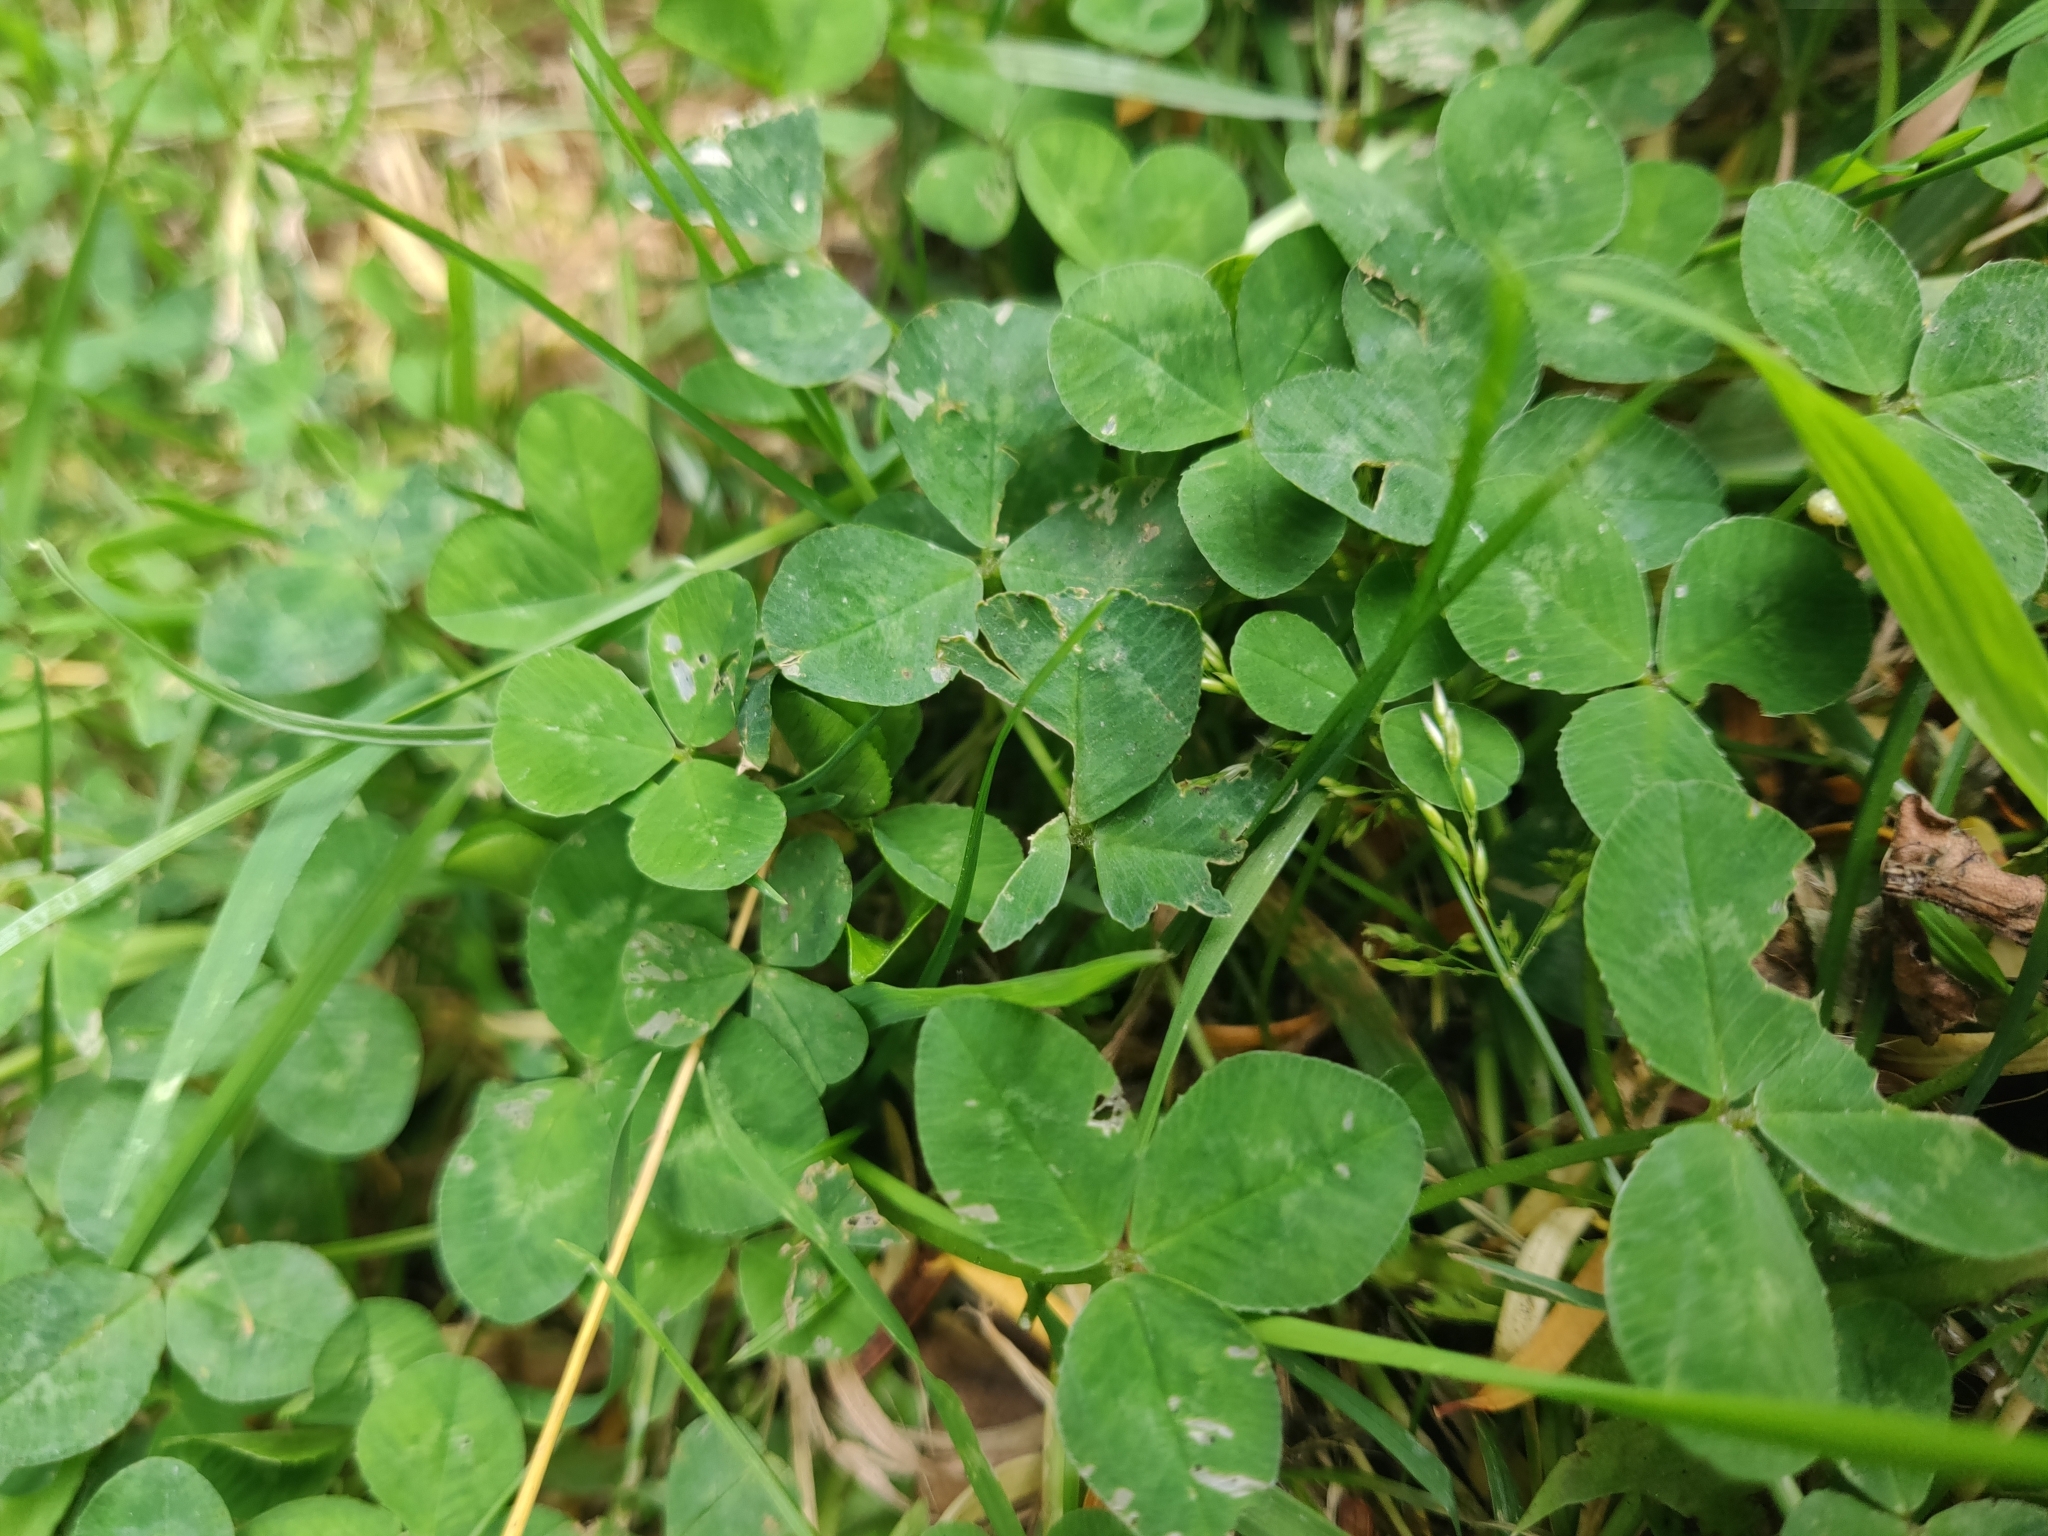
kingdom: Plantae
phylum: Tracheophyta
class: Magnoliopsida
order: Fabales
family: Fabaceae
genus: Trifolium
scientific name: Trifolium repens
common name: White clover
